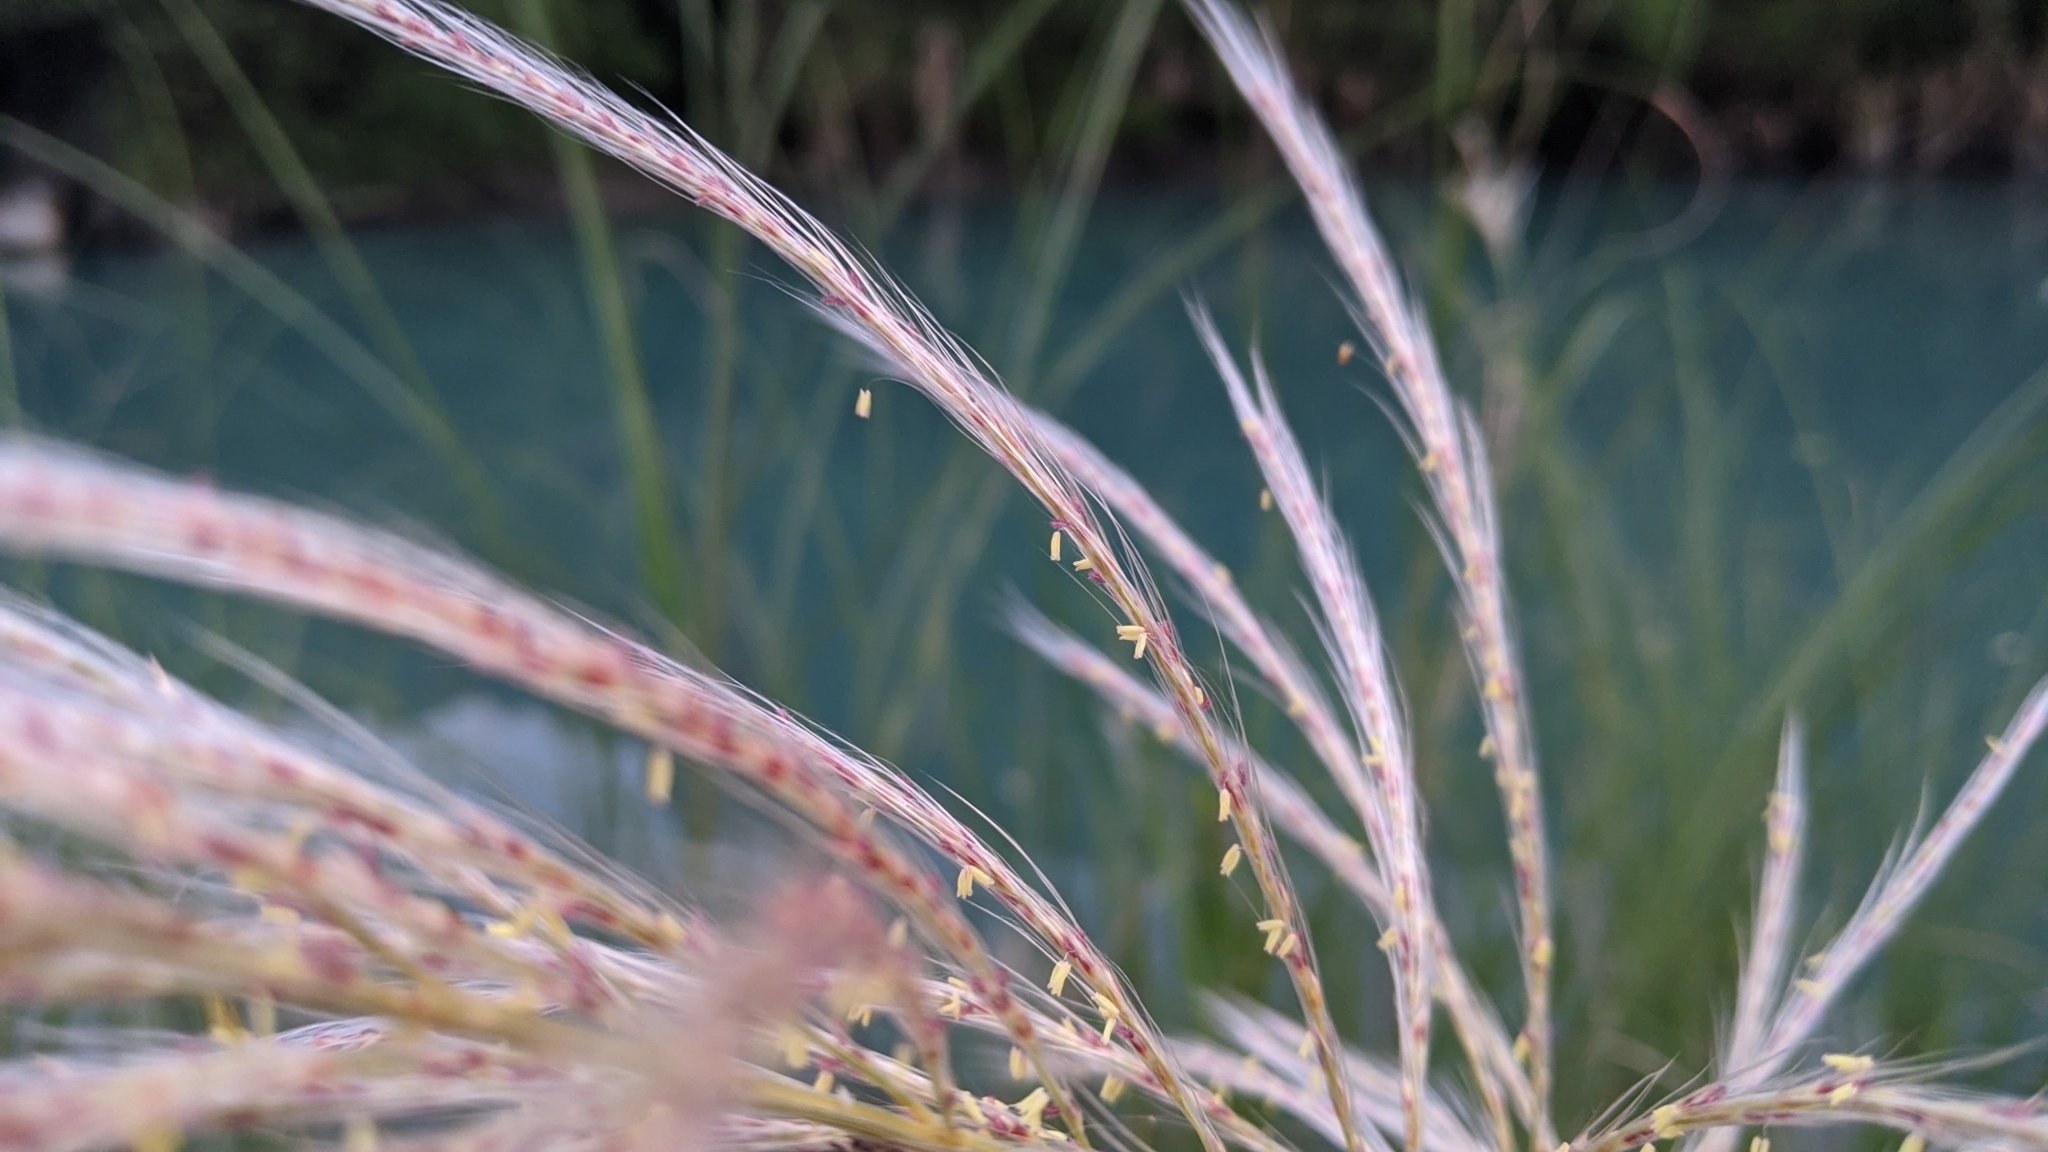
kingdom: Plantae
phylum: Tracheophyta
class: Liliopsida
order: Poales
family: Poaceae
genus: Saccharum
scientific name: Saccharum spontaneum
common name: Wild sugarcane
